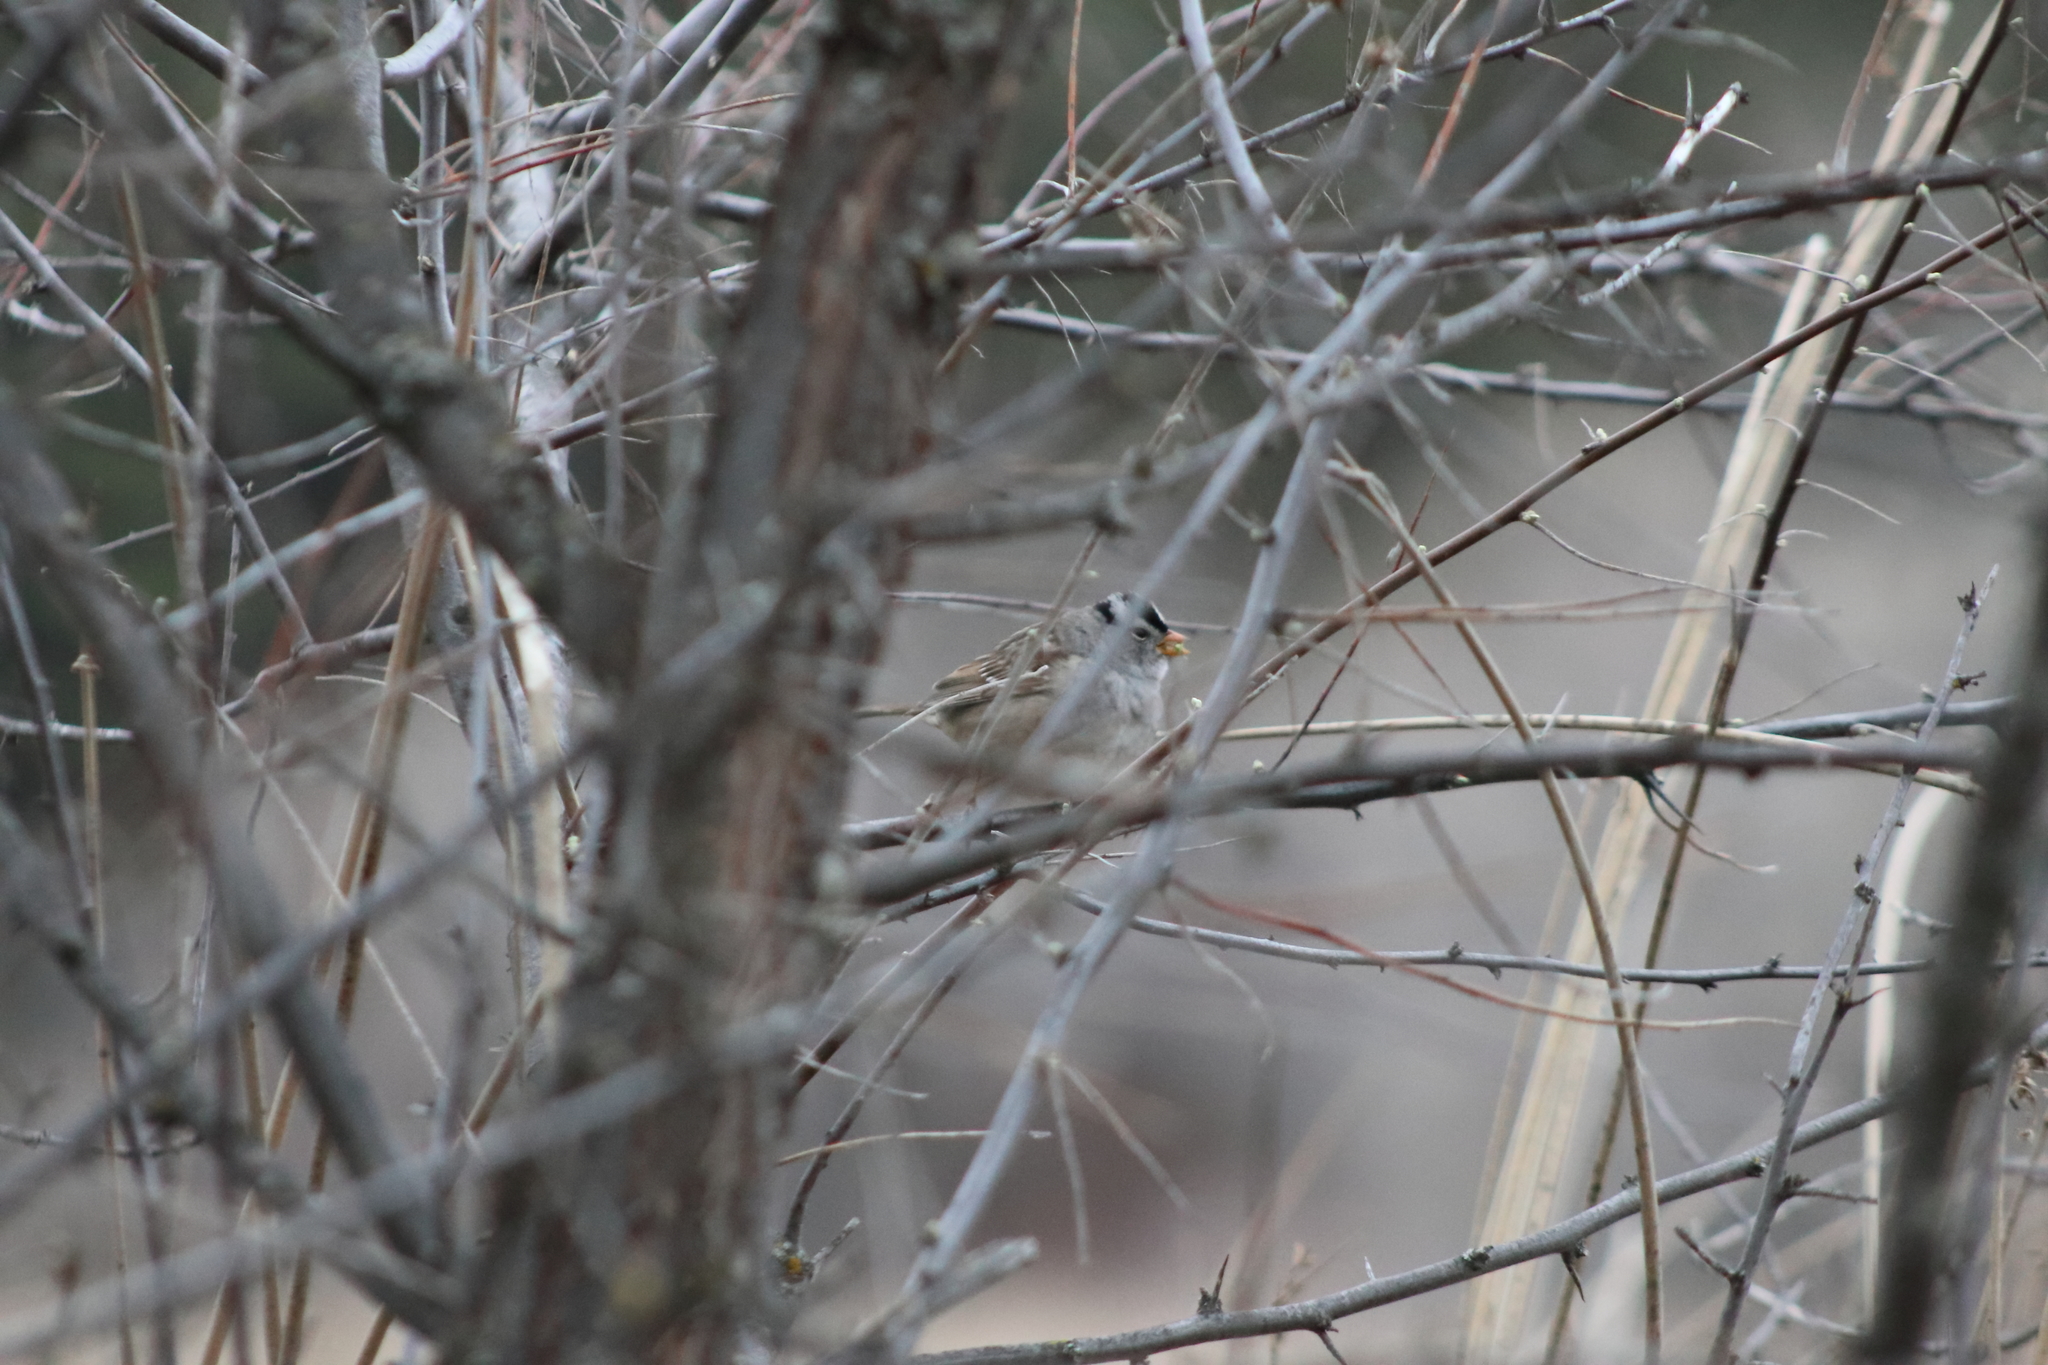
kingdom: Animalia
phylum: Chordata
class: Aves
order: Passeriformes
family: Passerellidae
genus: Zonotrichia
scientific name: Zonotrichia leucophrys
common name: White-crowned sparrow
